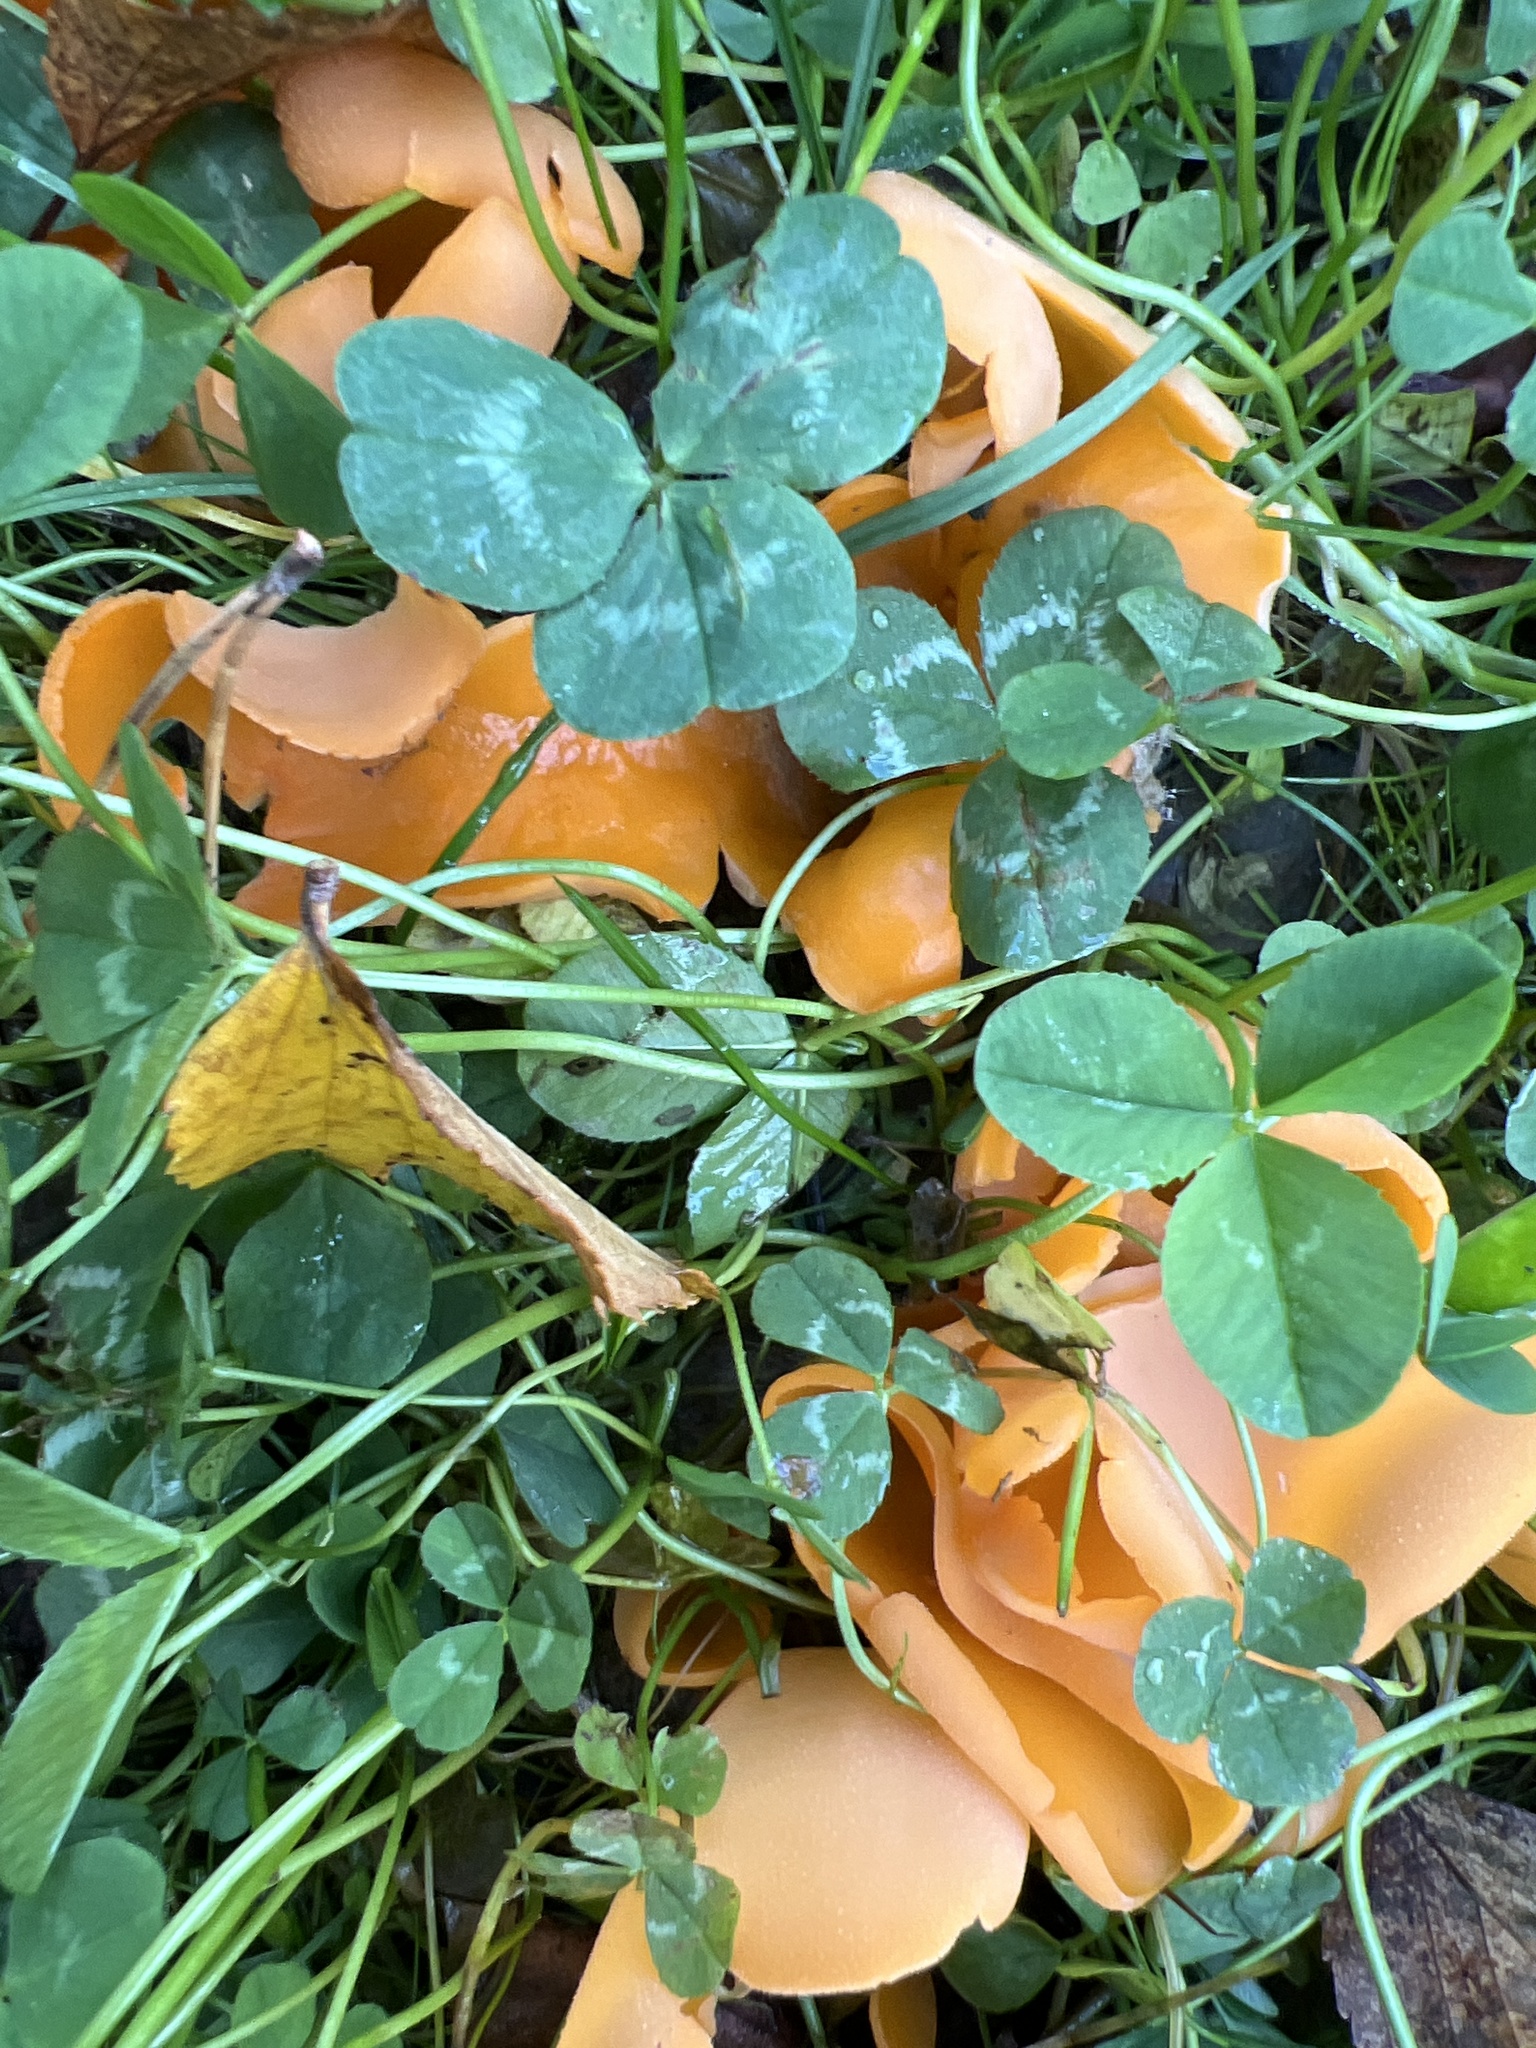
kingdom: Fungi
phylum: Ascomycota
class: Pezizomycetes
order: Pezizales
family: Pyronemataceae
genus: Aleuria
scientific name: Aleuria aurantia
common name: Orange peel fungus
